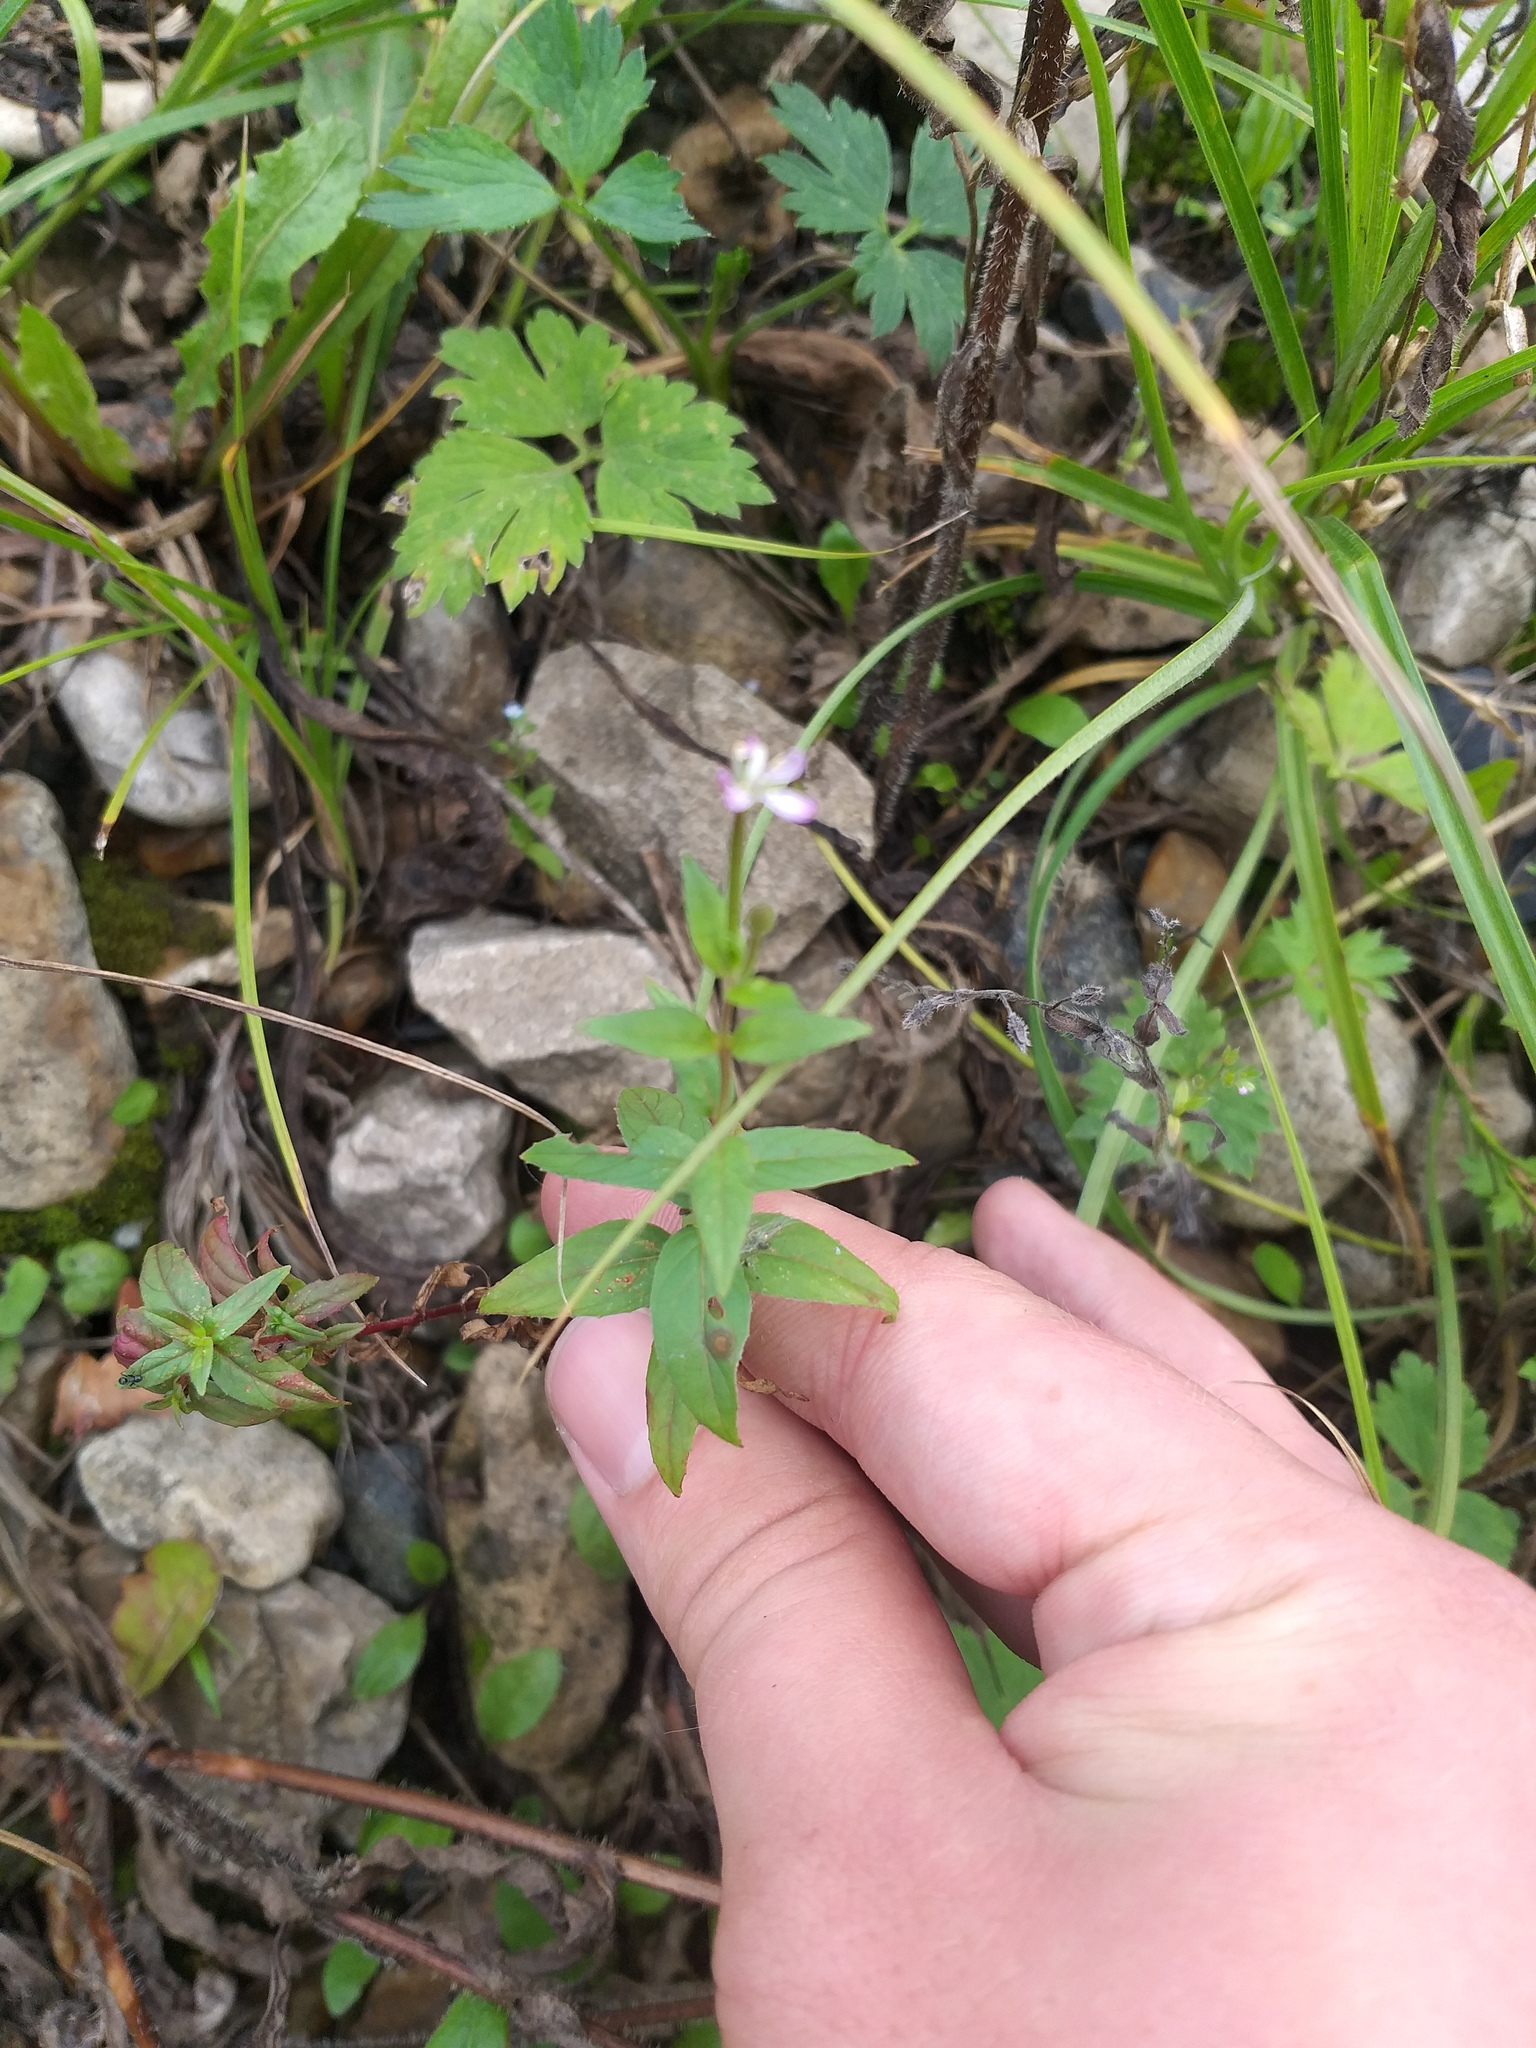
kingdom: Plantae
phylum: Tracheophyta
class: Magnoliopsida
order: Myrtales
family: Onagraceae
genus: Epilobium
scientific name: Epilobium ciliatum
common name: American willowherb
